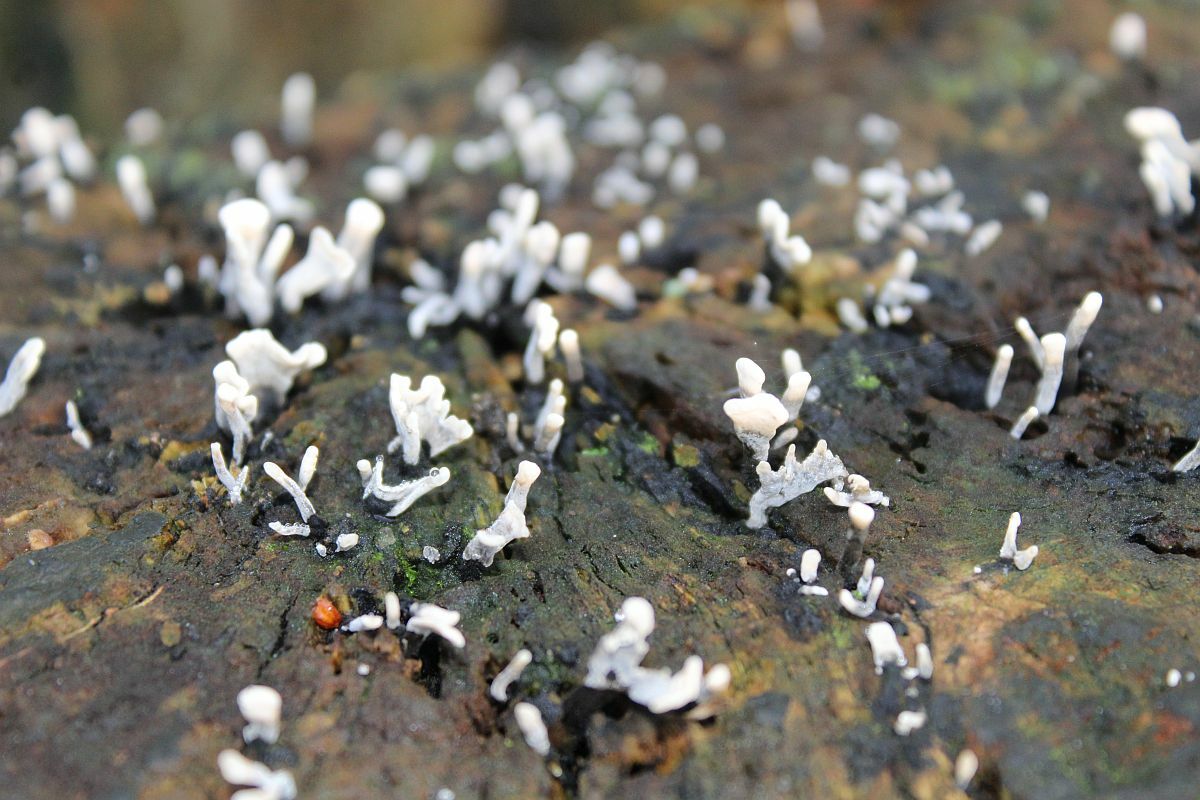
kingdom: Fungi
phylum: Ascomycota
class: Sordariomycetes
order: Xylariales
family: Xylariaceae
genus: Xylaria
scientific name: Xylaria hypoxylon
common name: Candle-snuff fungus
